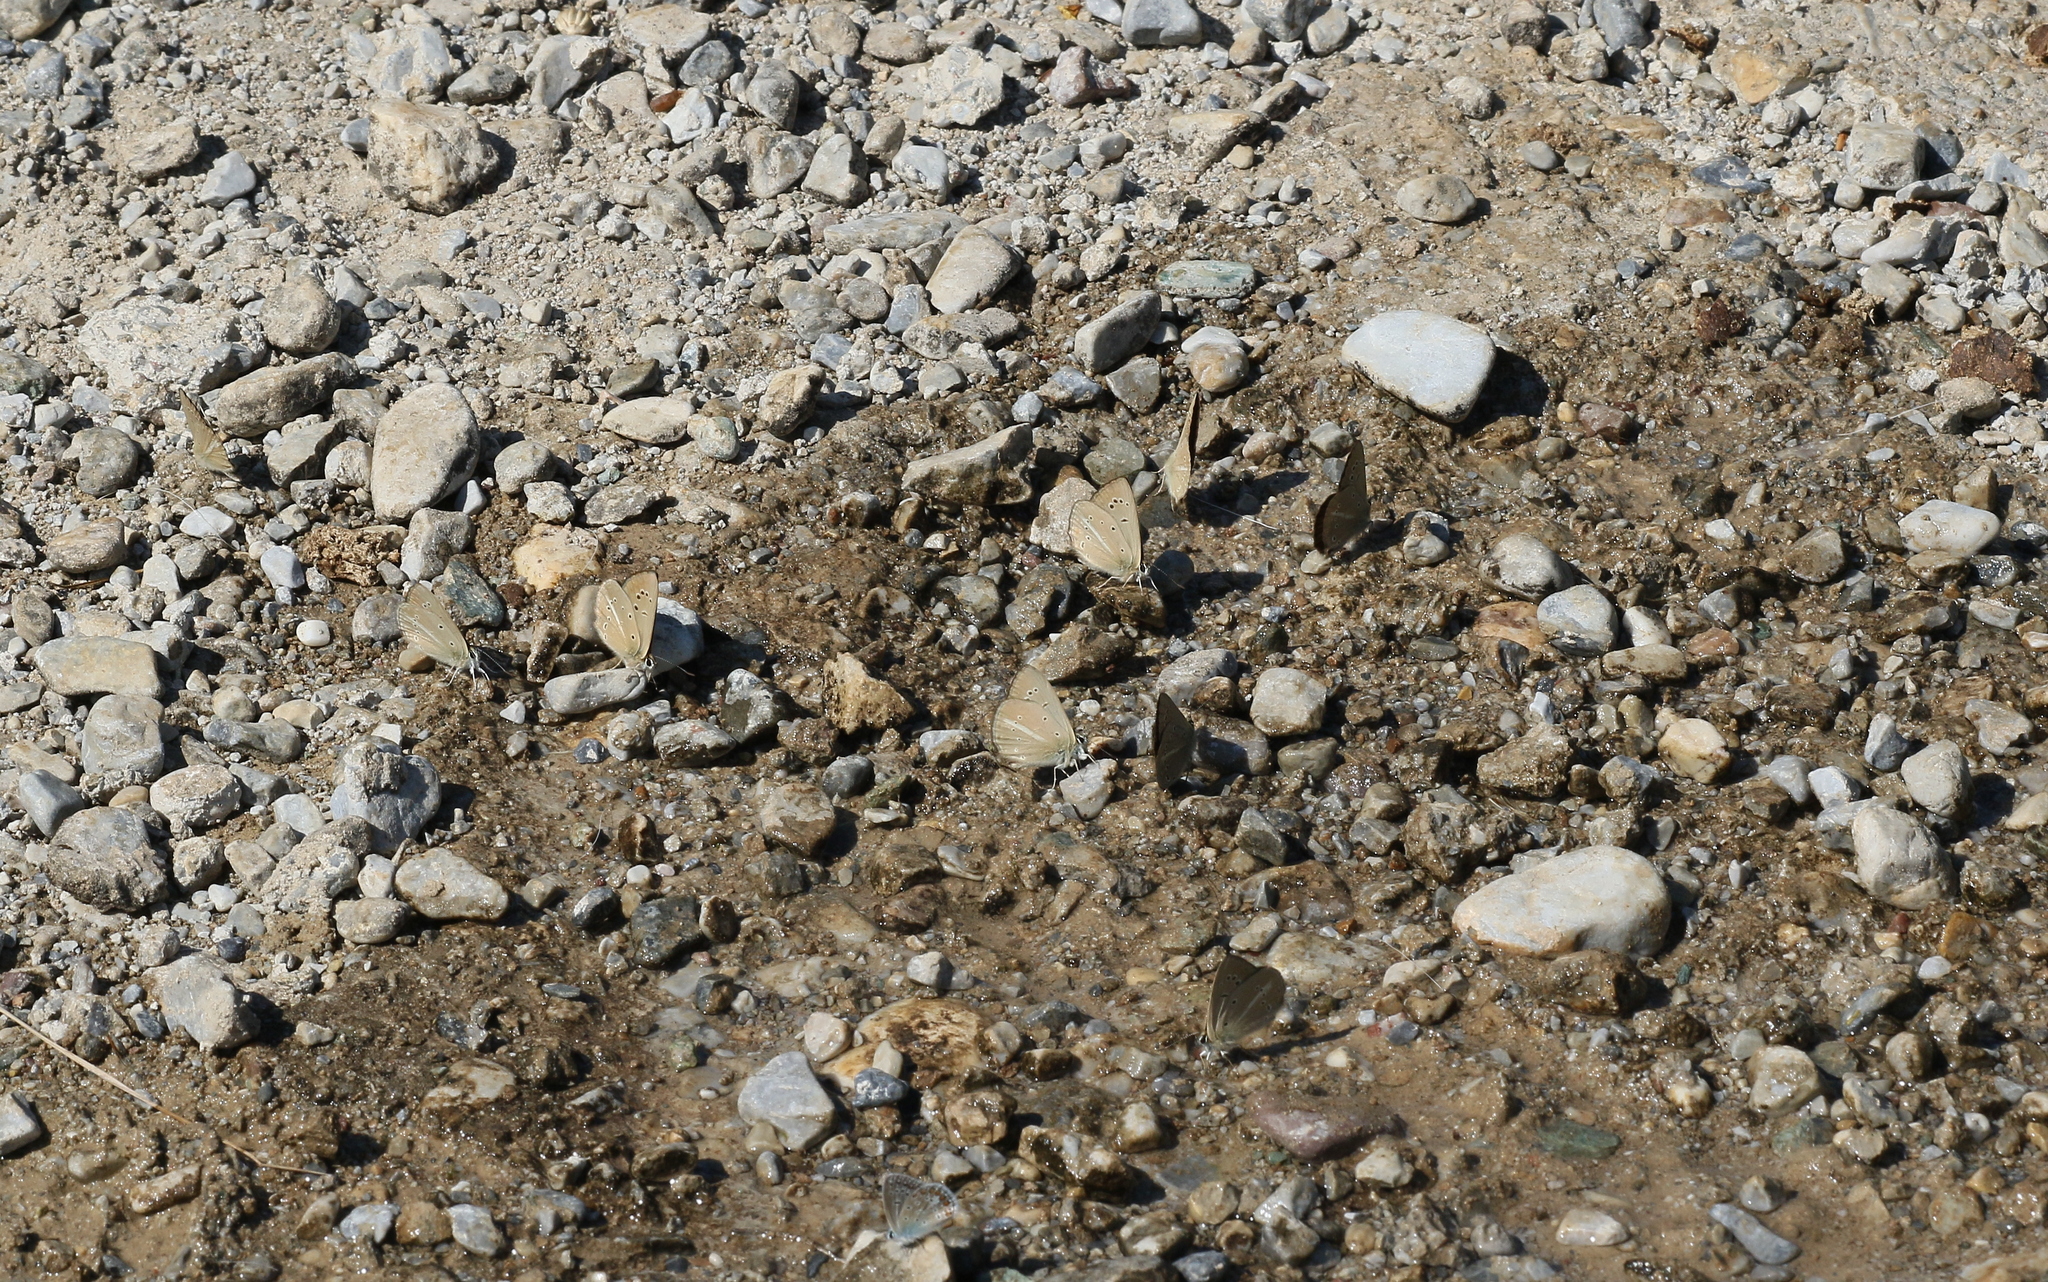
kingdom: Animalia
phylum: Arthropoda
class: Insecta
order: Lepidoptera
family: Lycaenidae
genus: Polyommatus
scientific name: Polyommatus ripartii
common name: Ripart's anomalous blue
